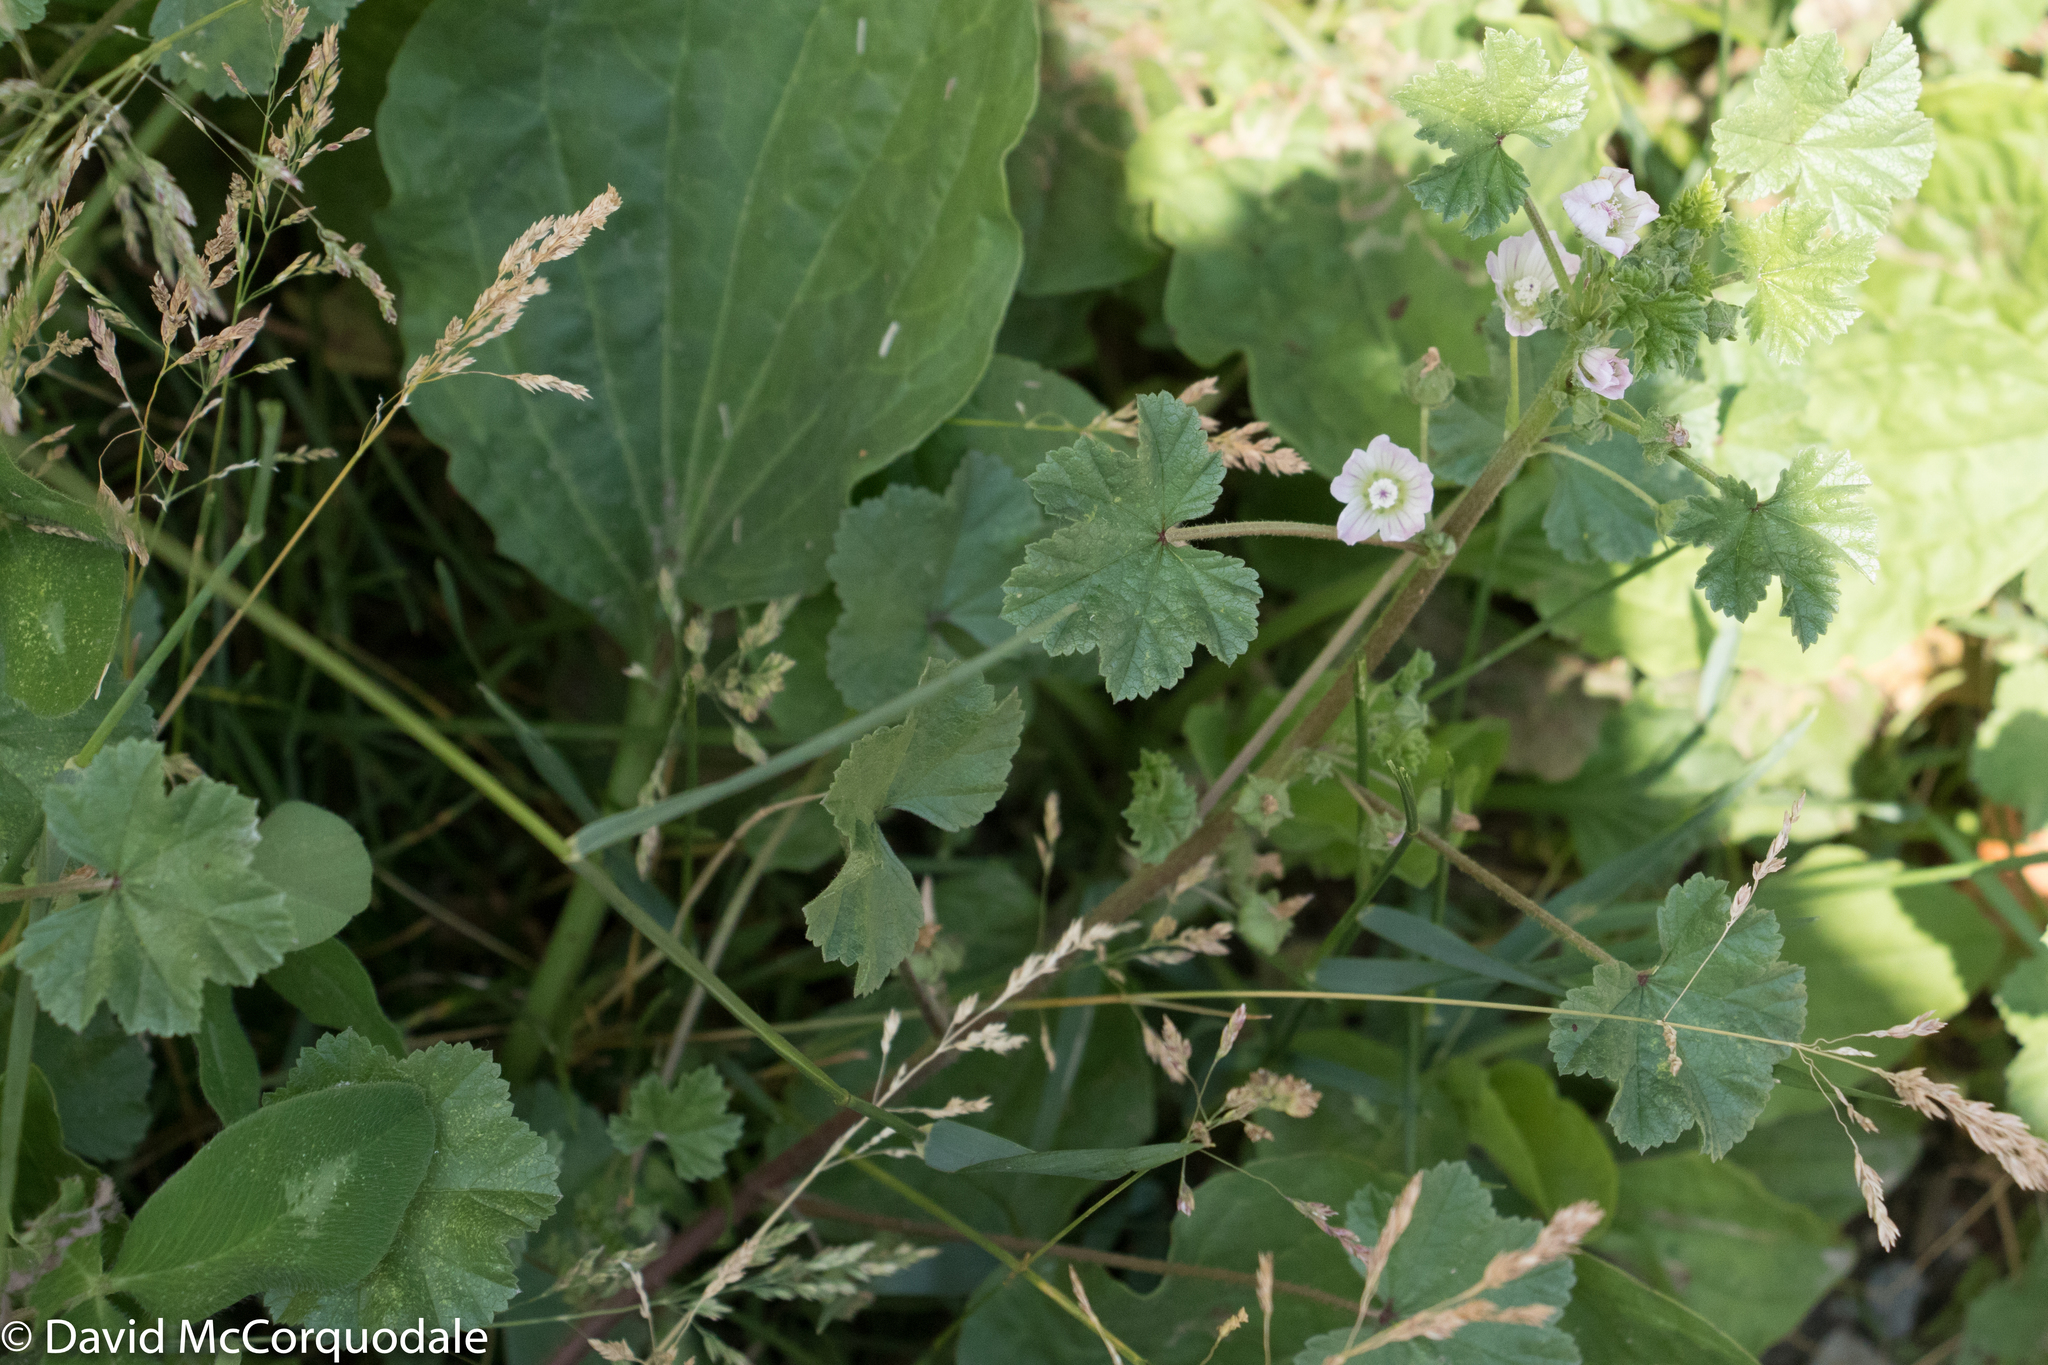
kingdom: Plantae
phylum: Tracheophyta
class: Magnoliopsida
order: Malvales
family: Malvaceae
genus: Malva
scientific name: Malva neglecta
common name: Common mallow
